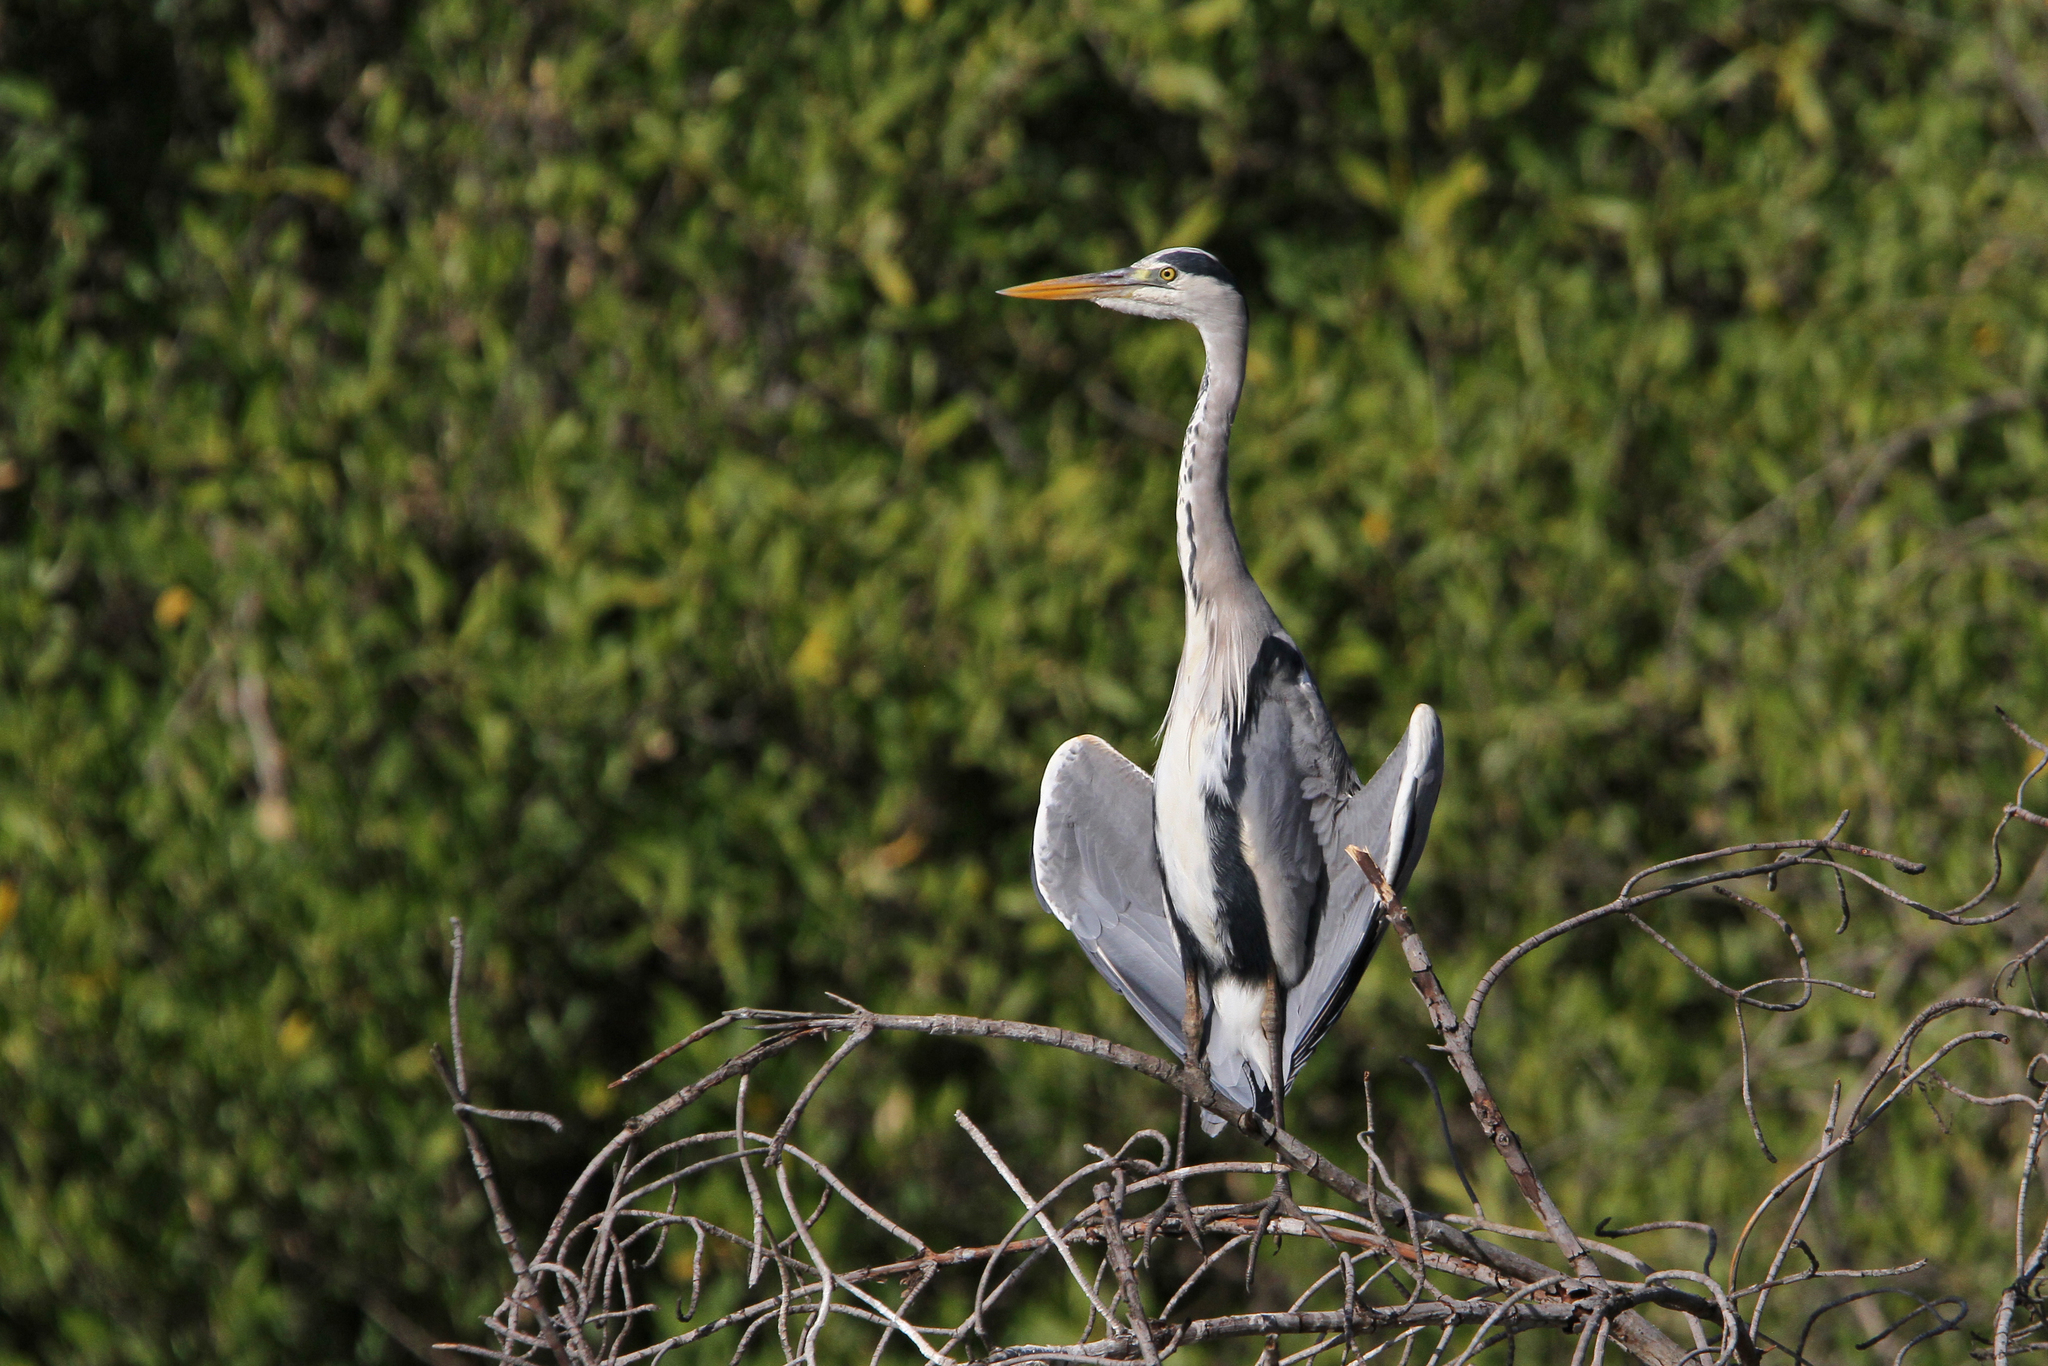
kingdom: Animalia
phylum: Chordata
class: Aves
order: Pelecaniformes
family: Ardeidae
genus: Ardea
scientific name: Ardea cinerea
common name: Grey heron
